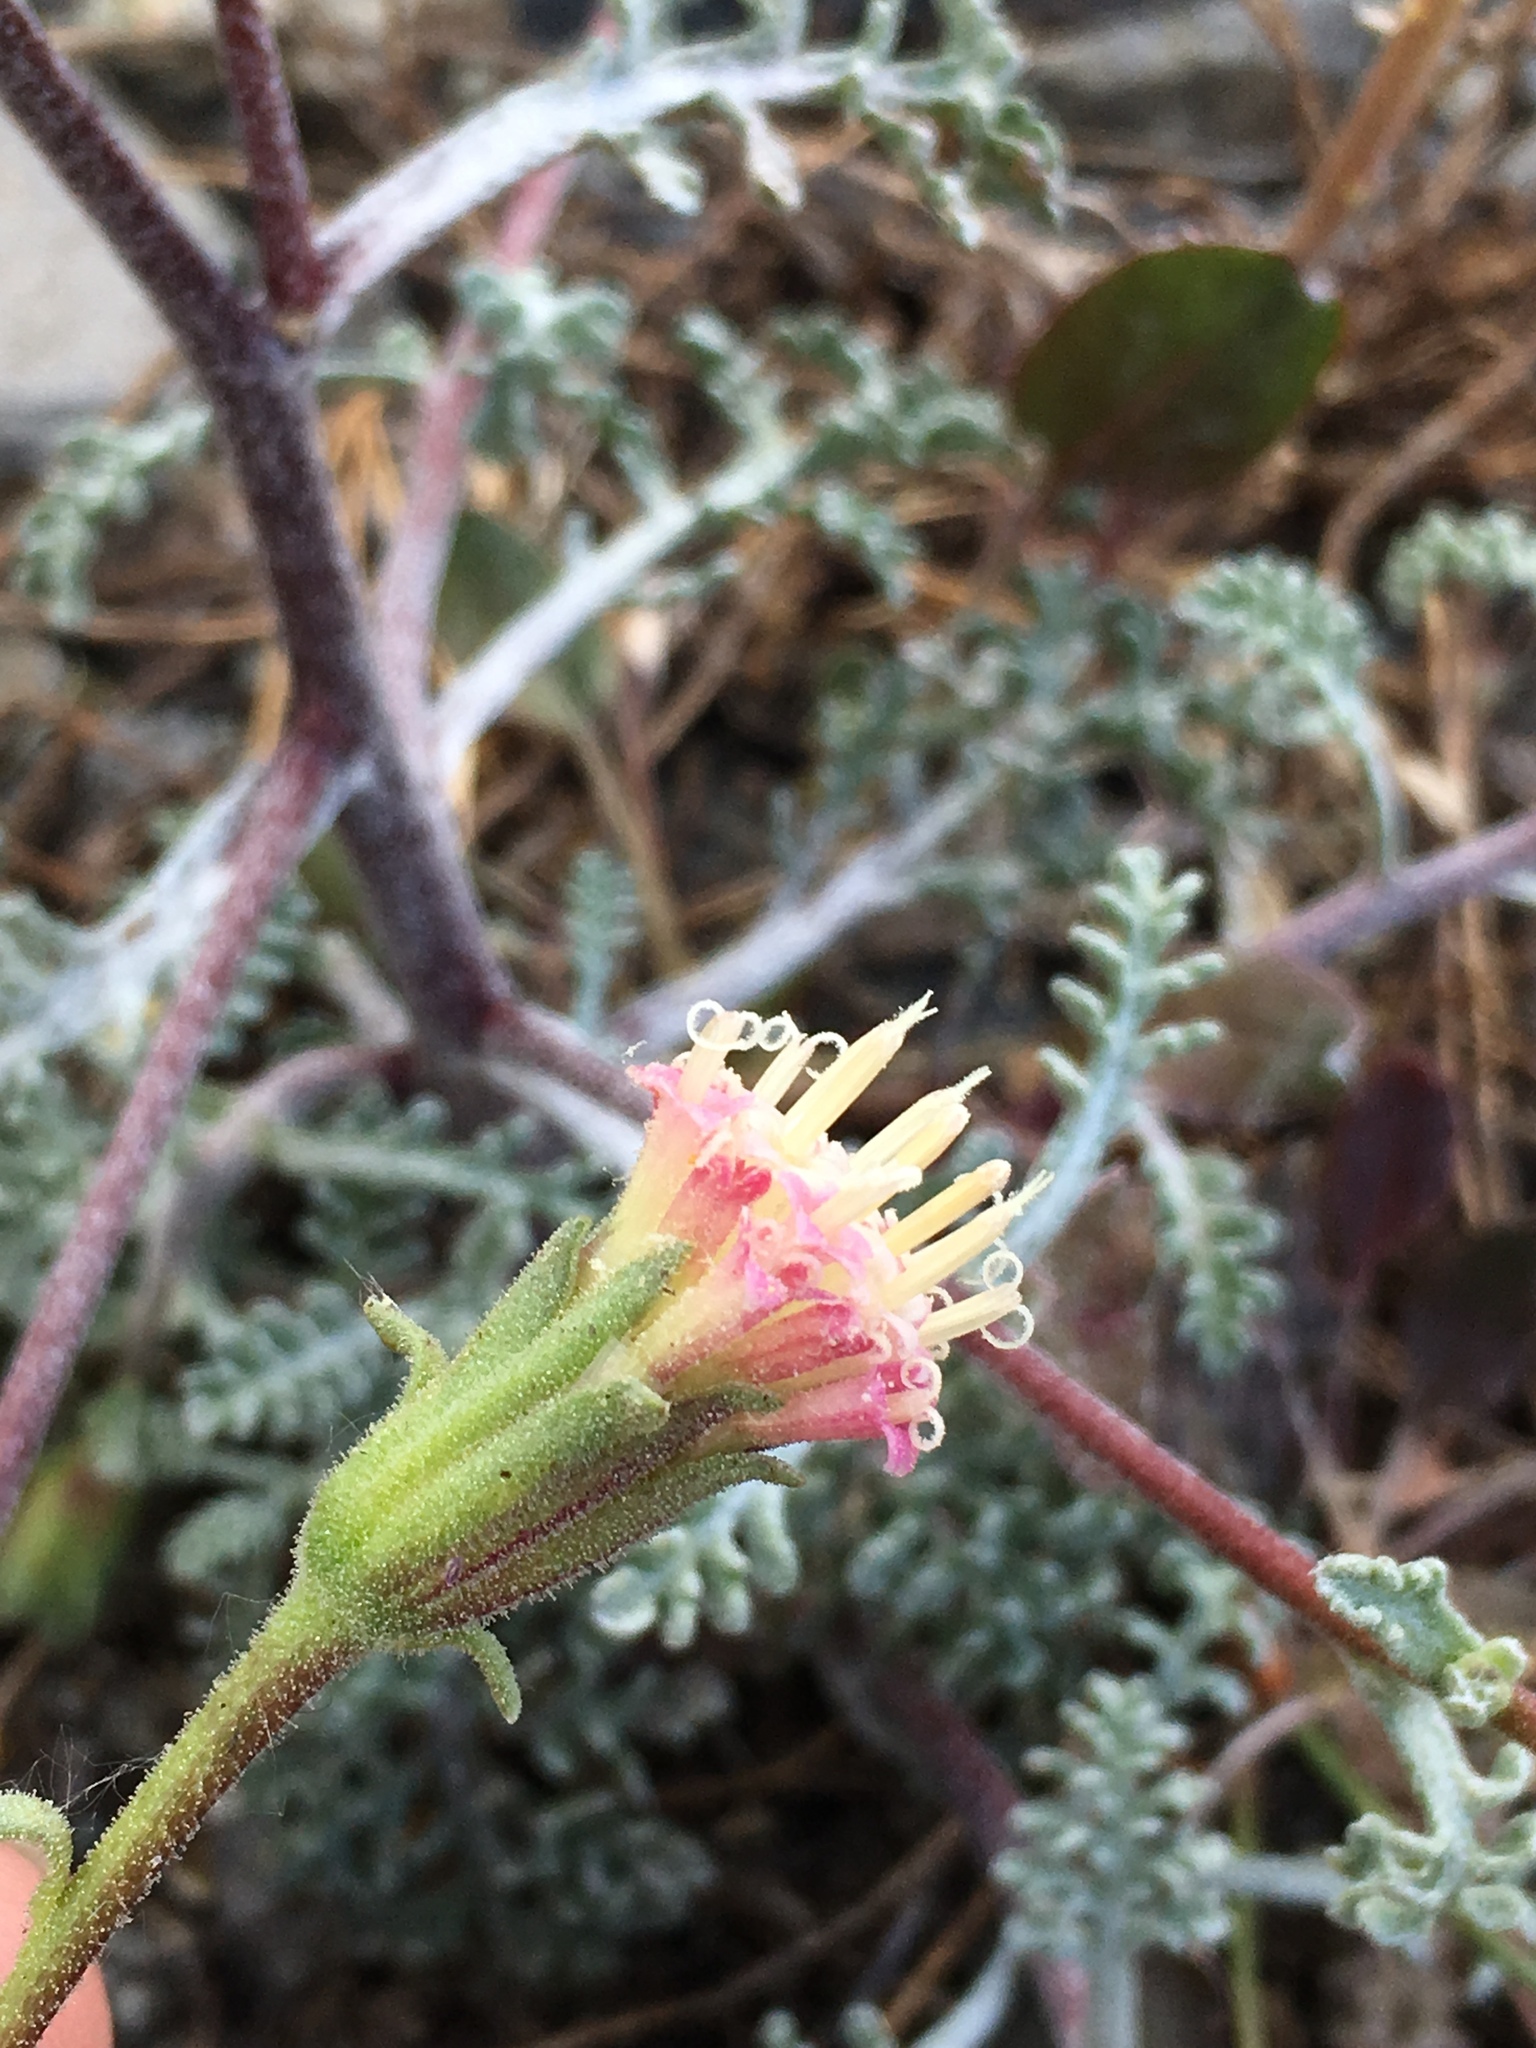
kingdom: Plantae
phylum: Tracheophyta
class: Magnoliopsida
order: Asterales
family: Asteraceae
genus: Chaenactis
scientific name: Chaenactis douglasii
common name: Hoary pincushion
